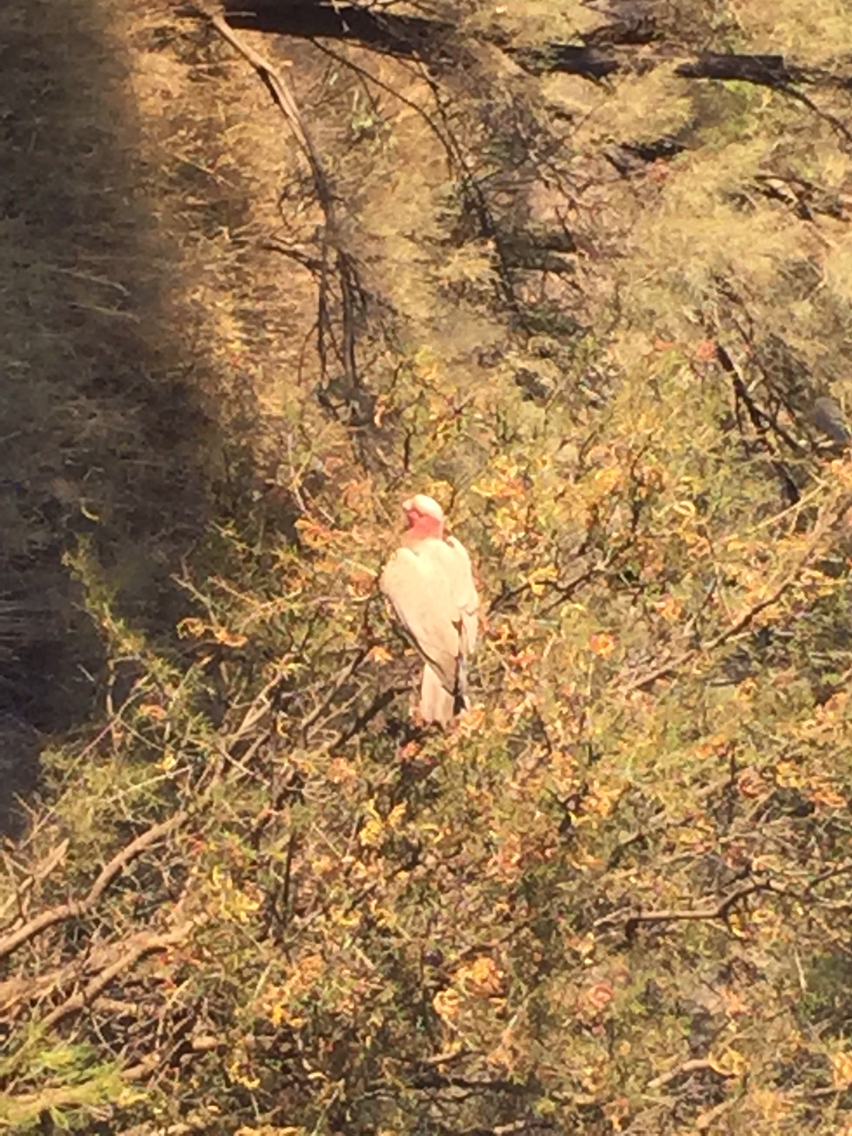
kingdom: Animalia
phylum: Chordata
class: Aves
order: Psittaciformes
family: Psittacidae
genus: Eolophus
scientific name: Eolophus roseicapilla
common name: Galah
